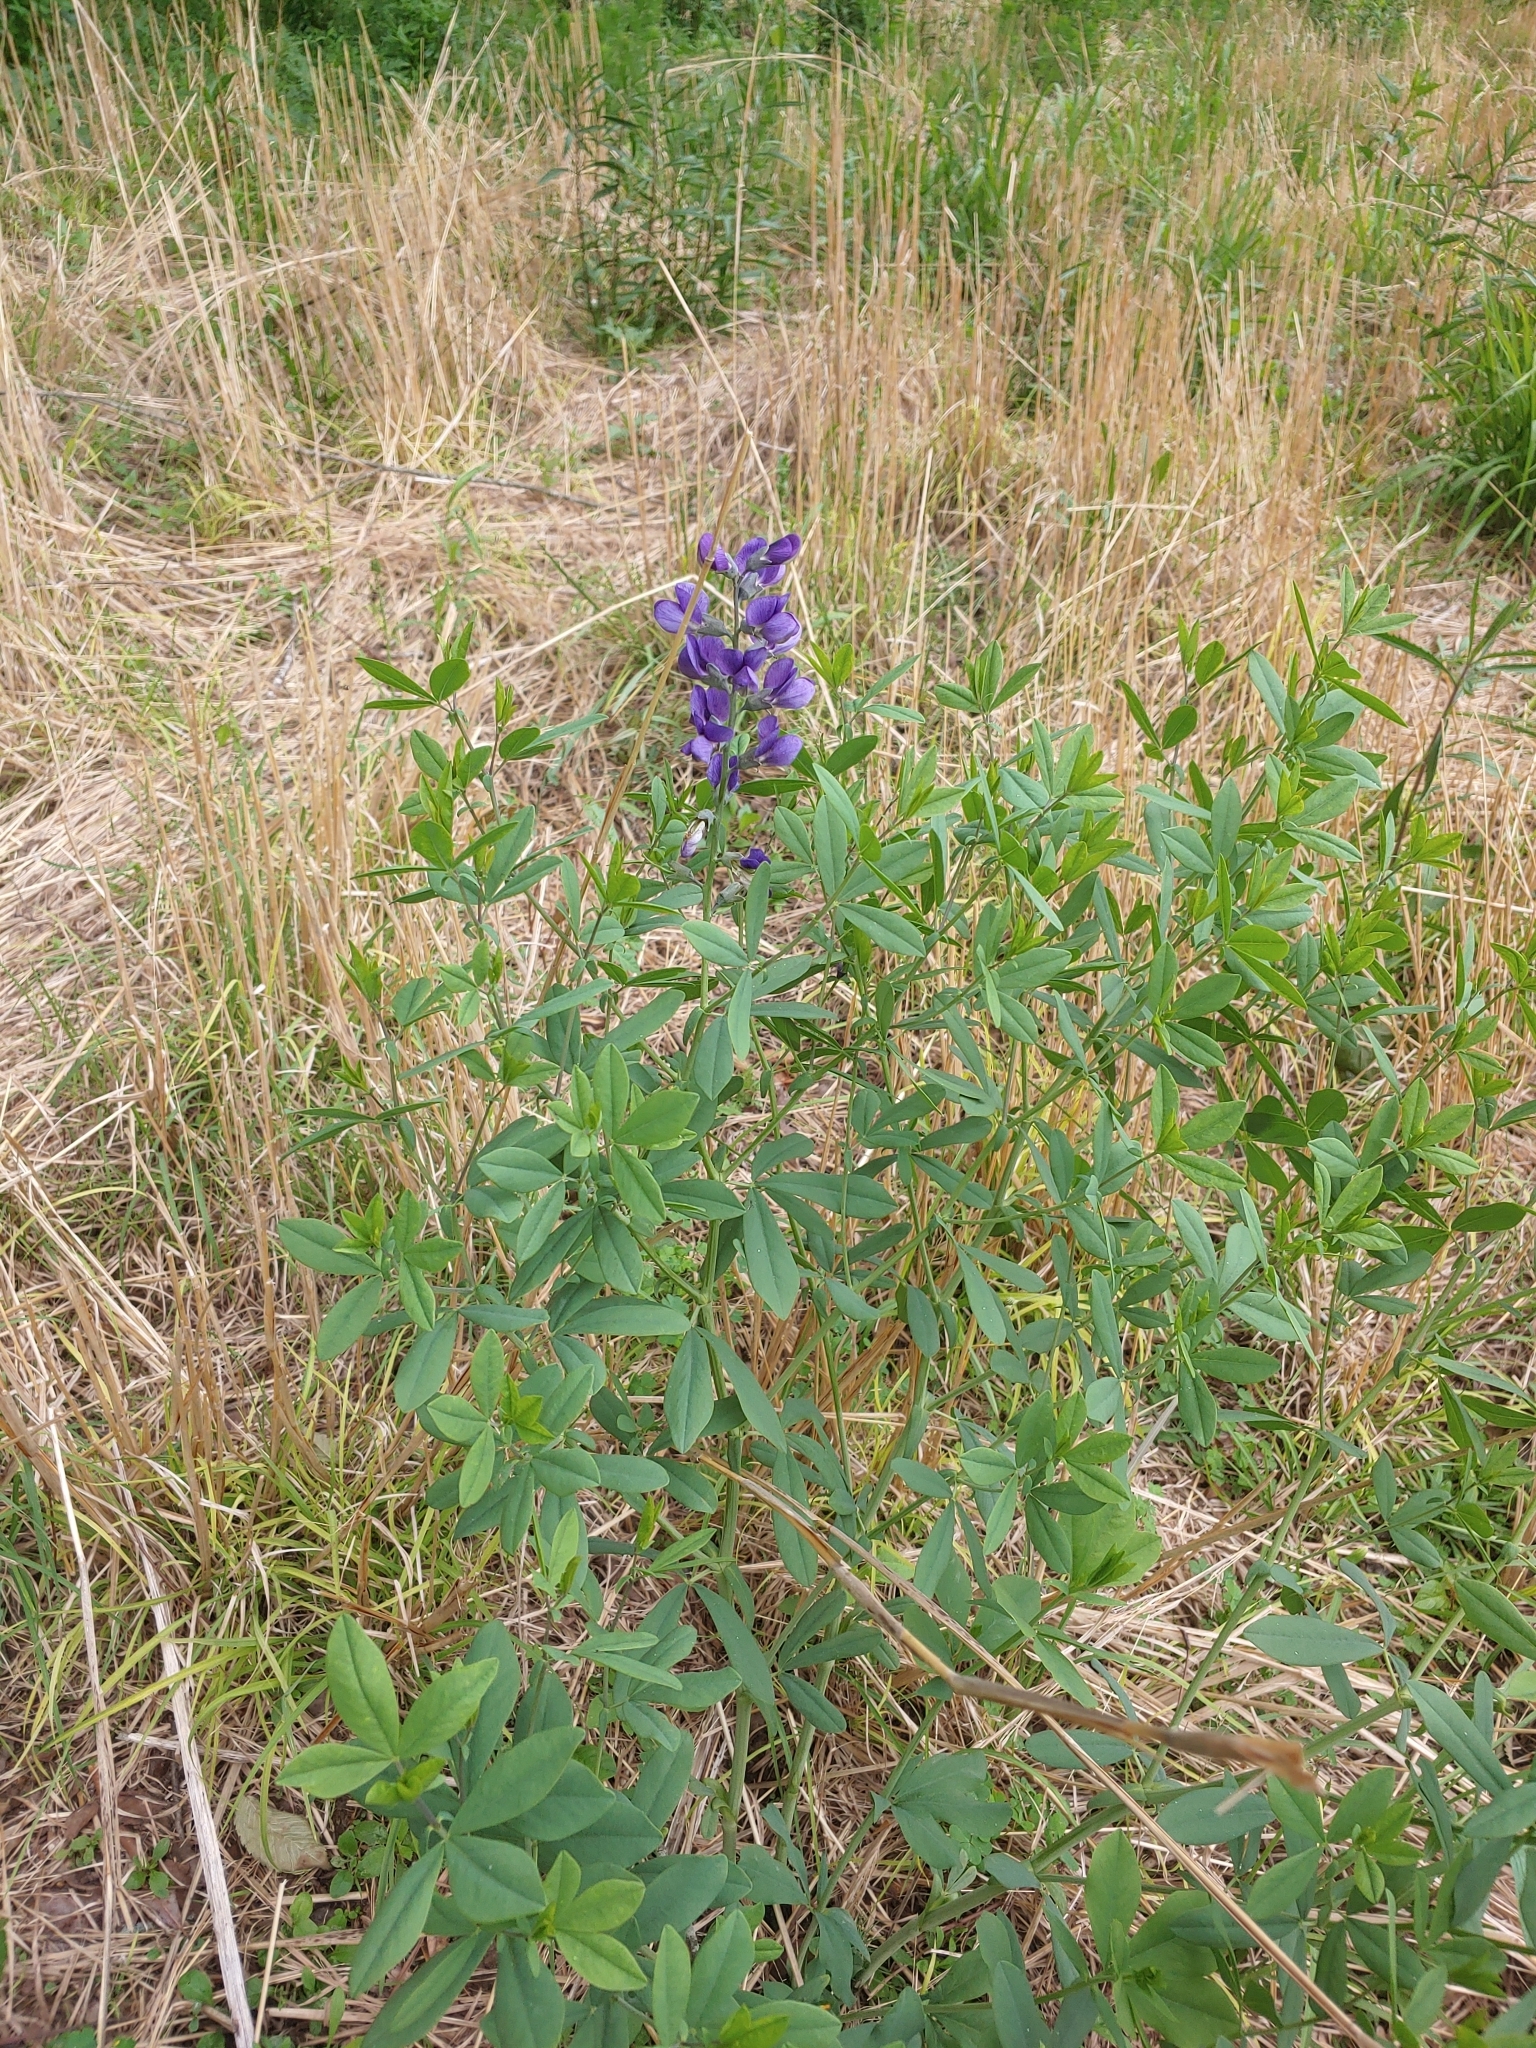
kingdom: Plantae
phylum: Tracheophyta
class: Magnoliopsida
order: Fabales
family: Fabaceae
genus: Baptisia
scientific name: Baptisia australis
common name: Blue false indigo
